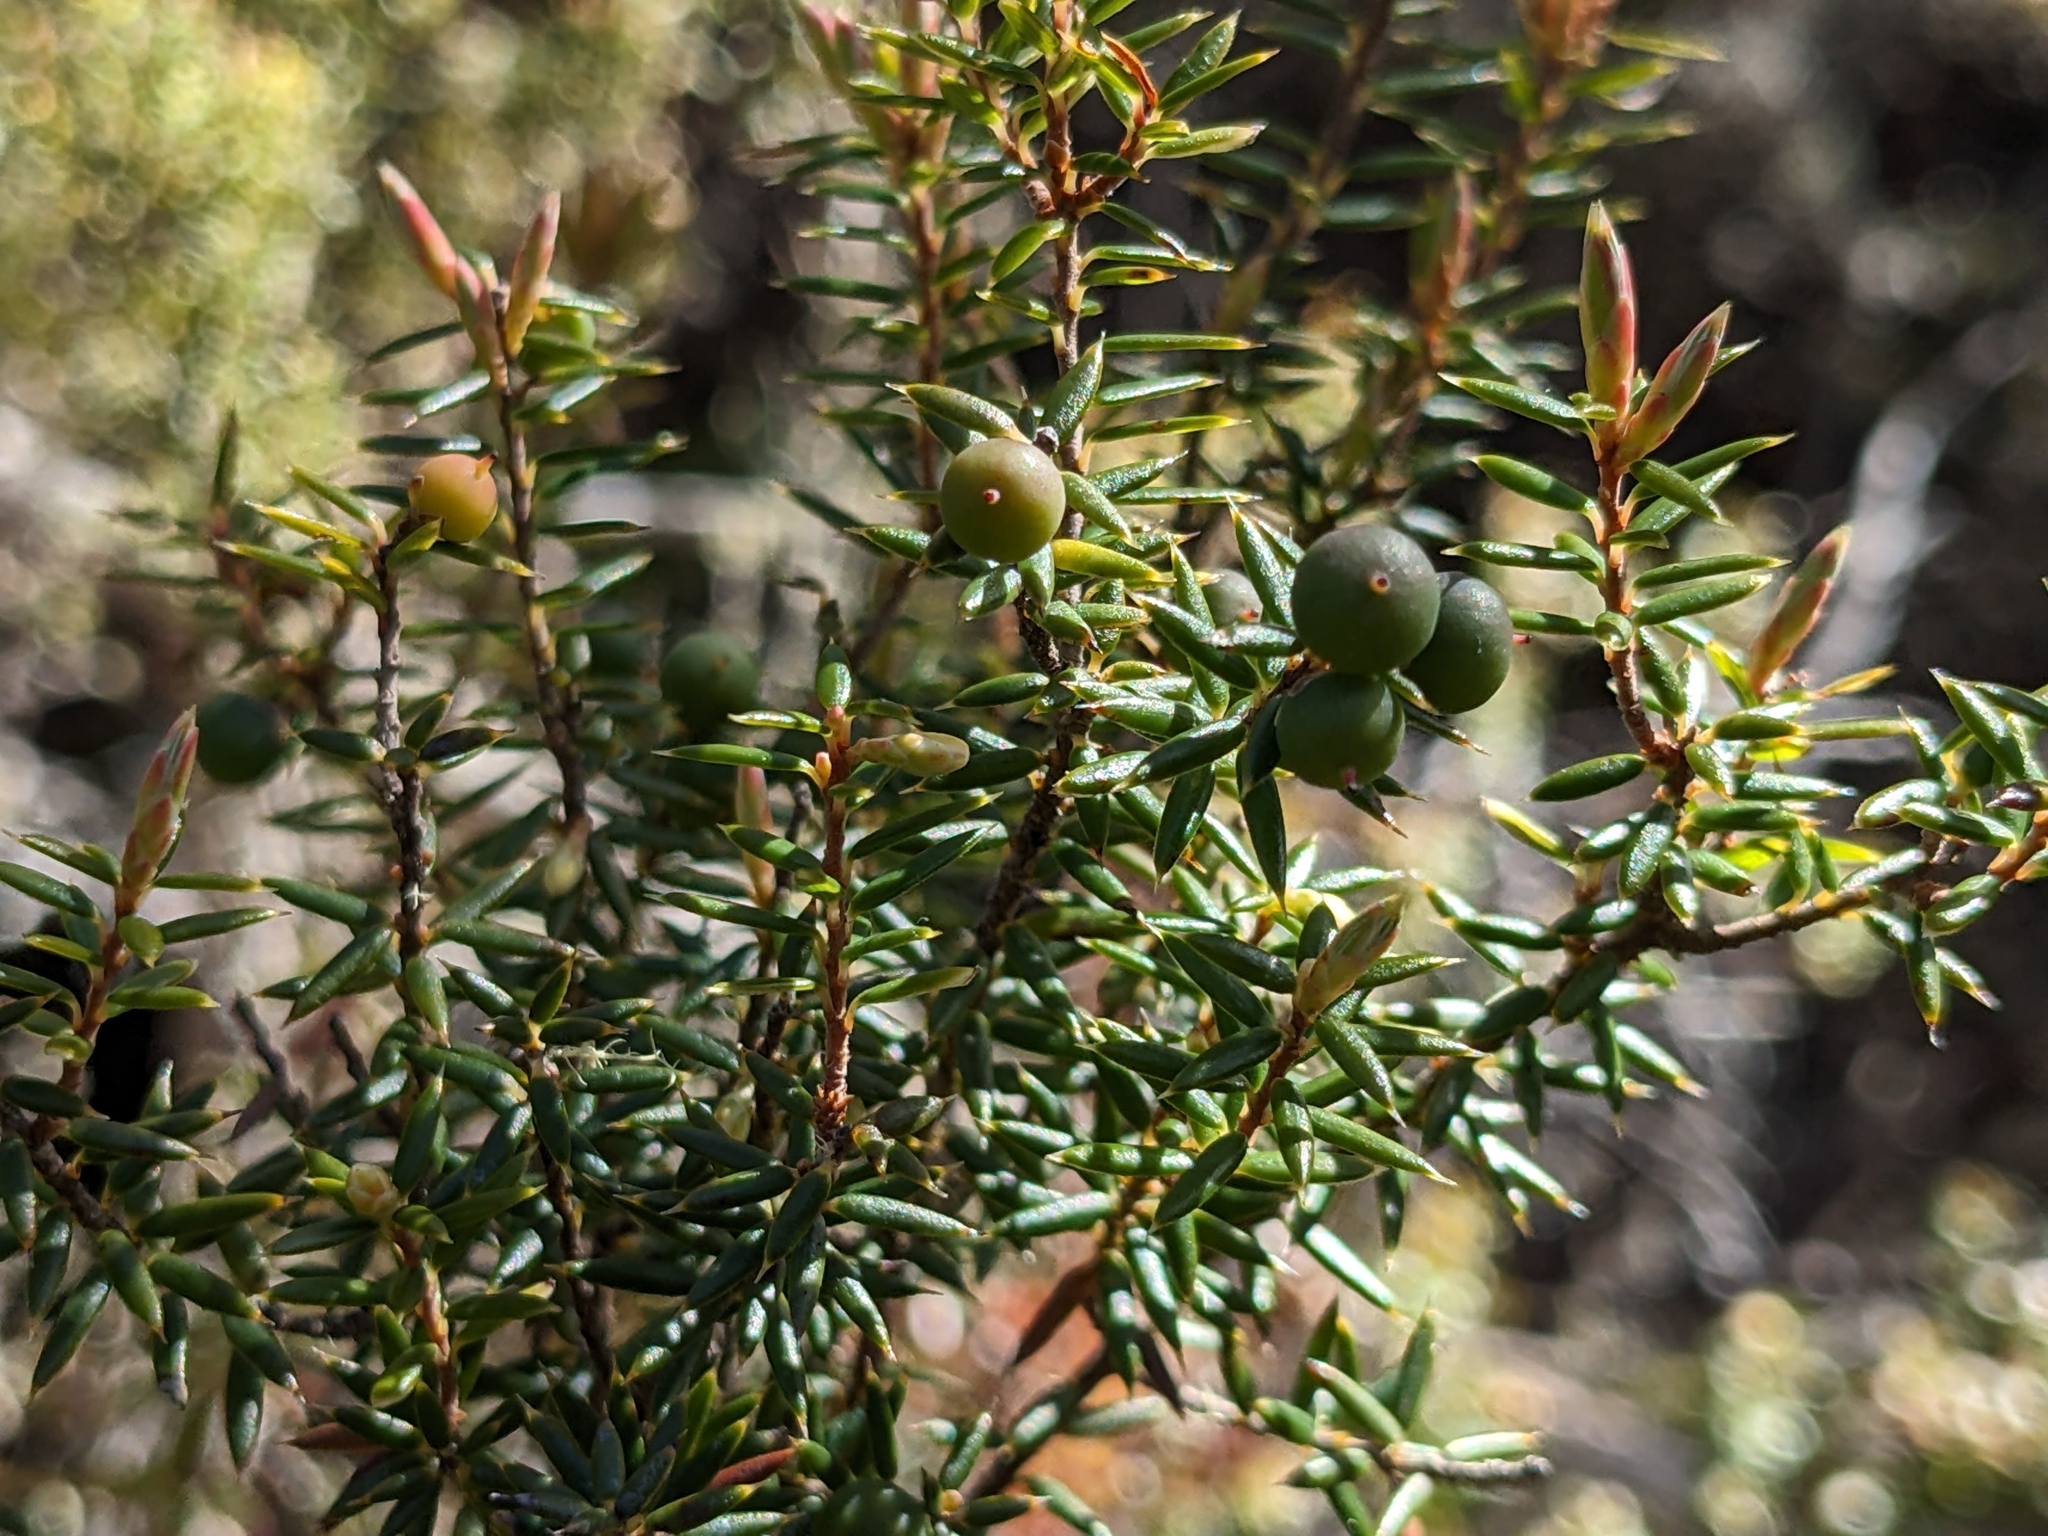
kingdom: Plantae
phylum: Tracheophyta
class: Magnoliopsida
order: Ericales
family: Ericaceae
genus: Leptecophylla
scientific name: Leptecophylla parvifolia
